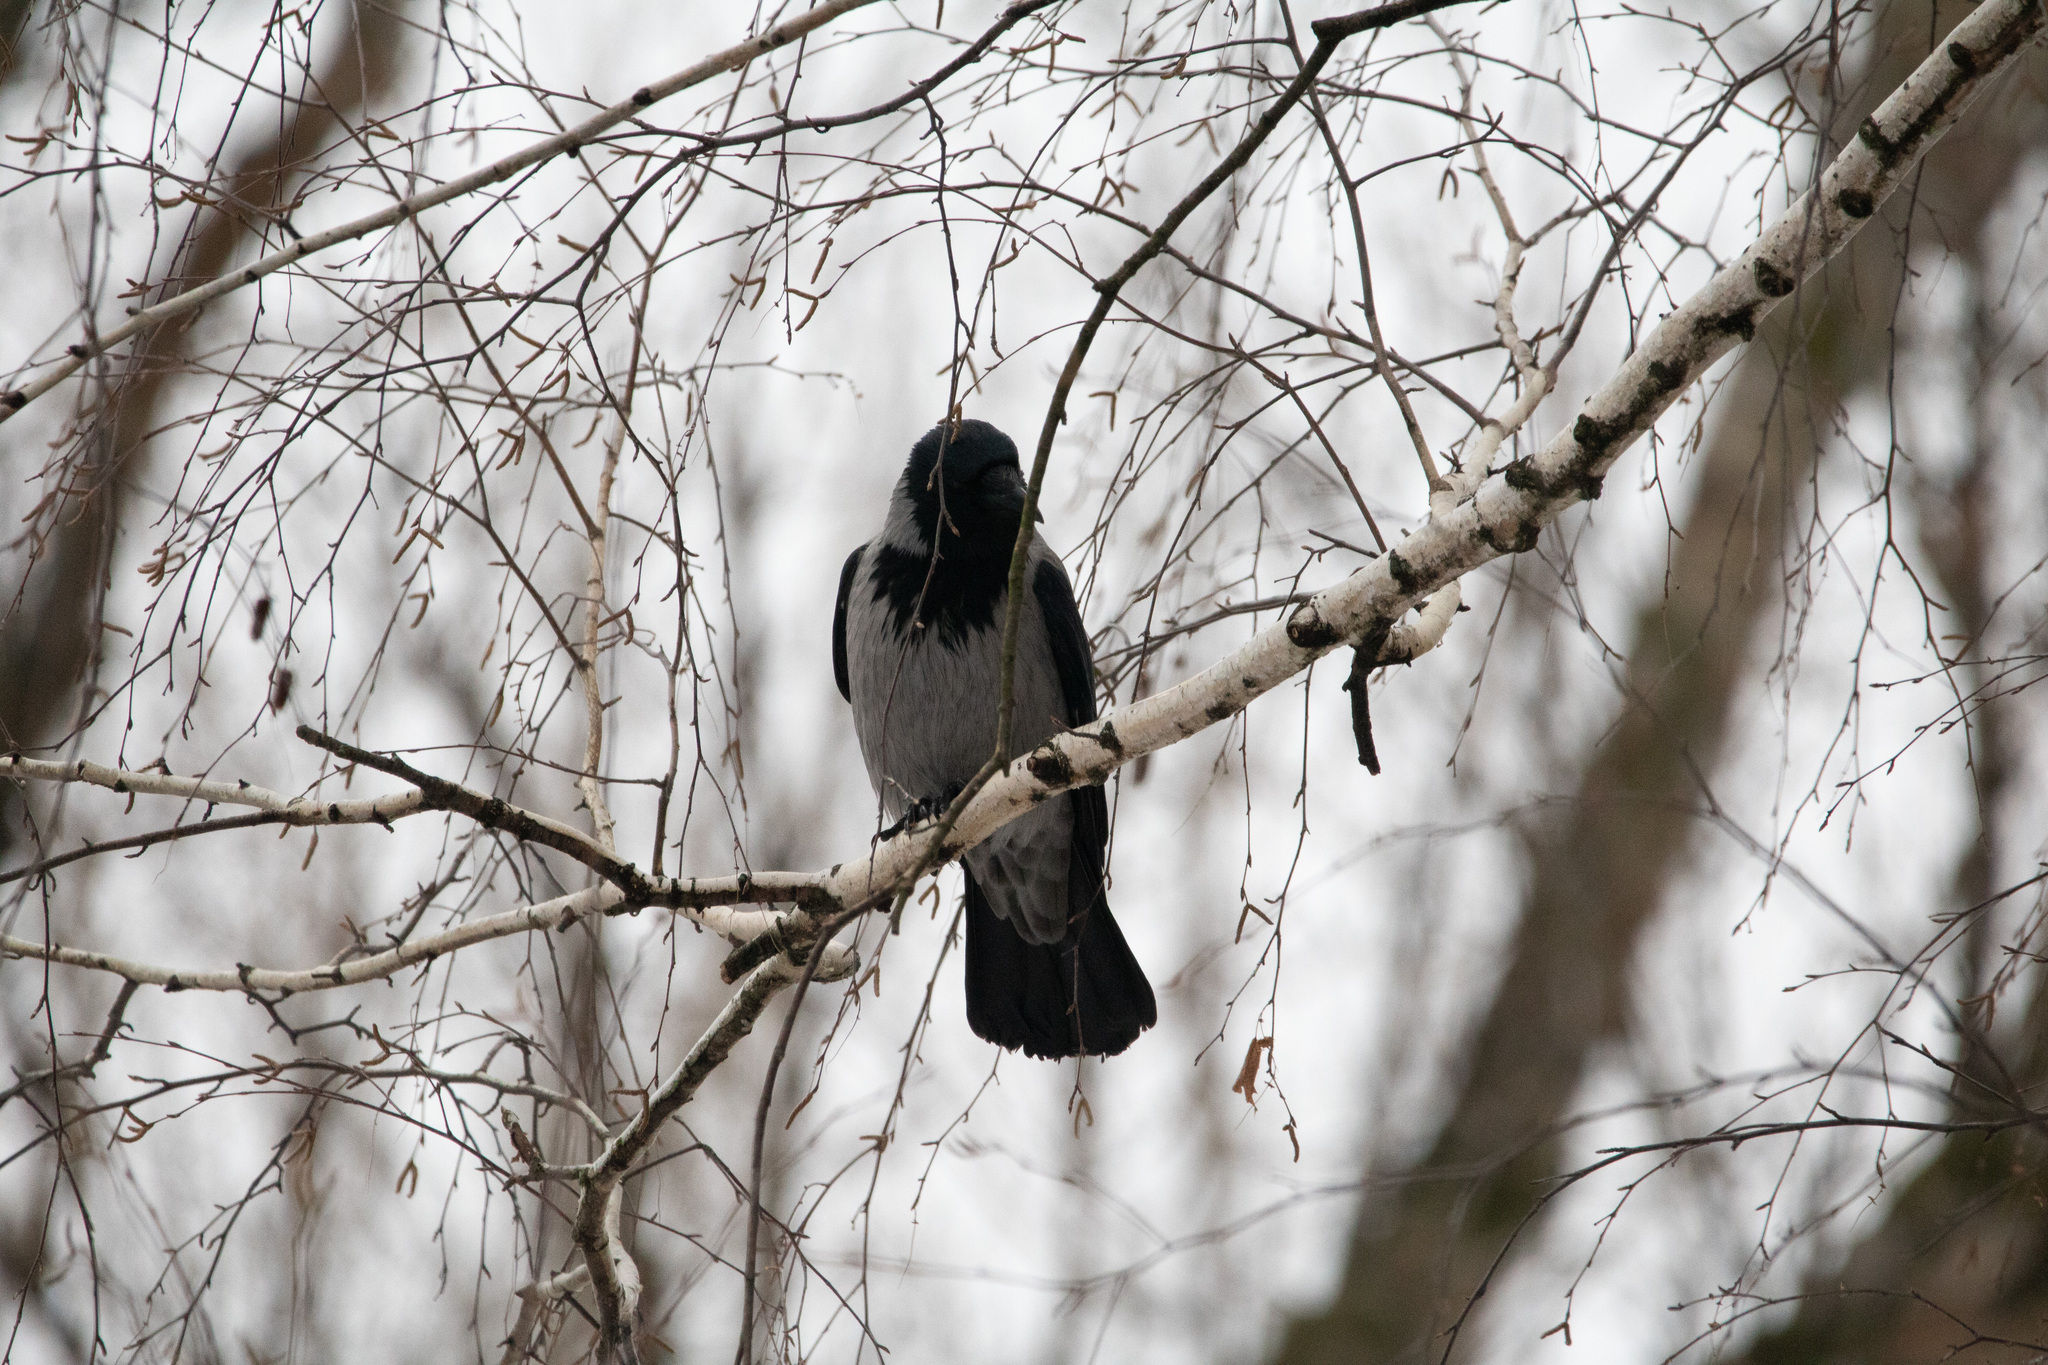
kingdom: Animalia
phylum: Chordata
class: Aves
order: Passeriformes
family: Corvidae
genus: Corvus
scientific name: Corvus cornix
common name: Hooded crow
